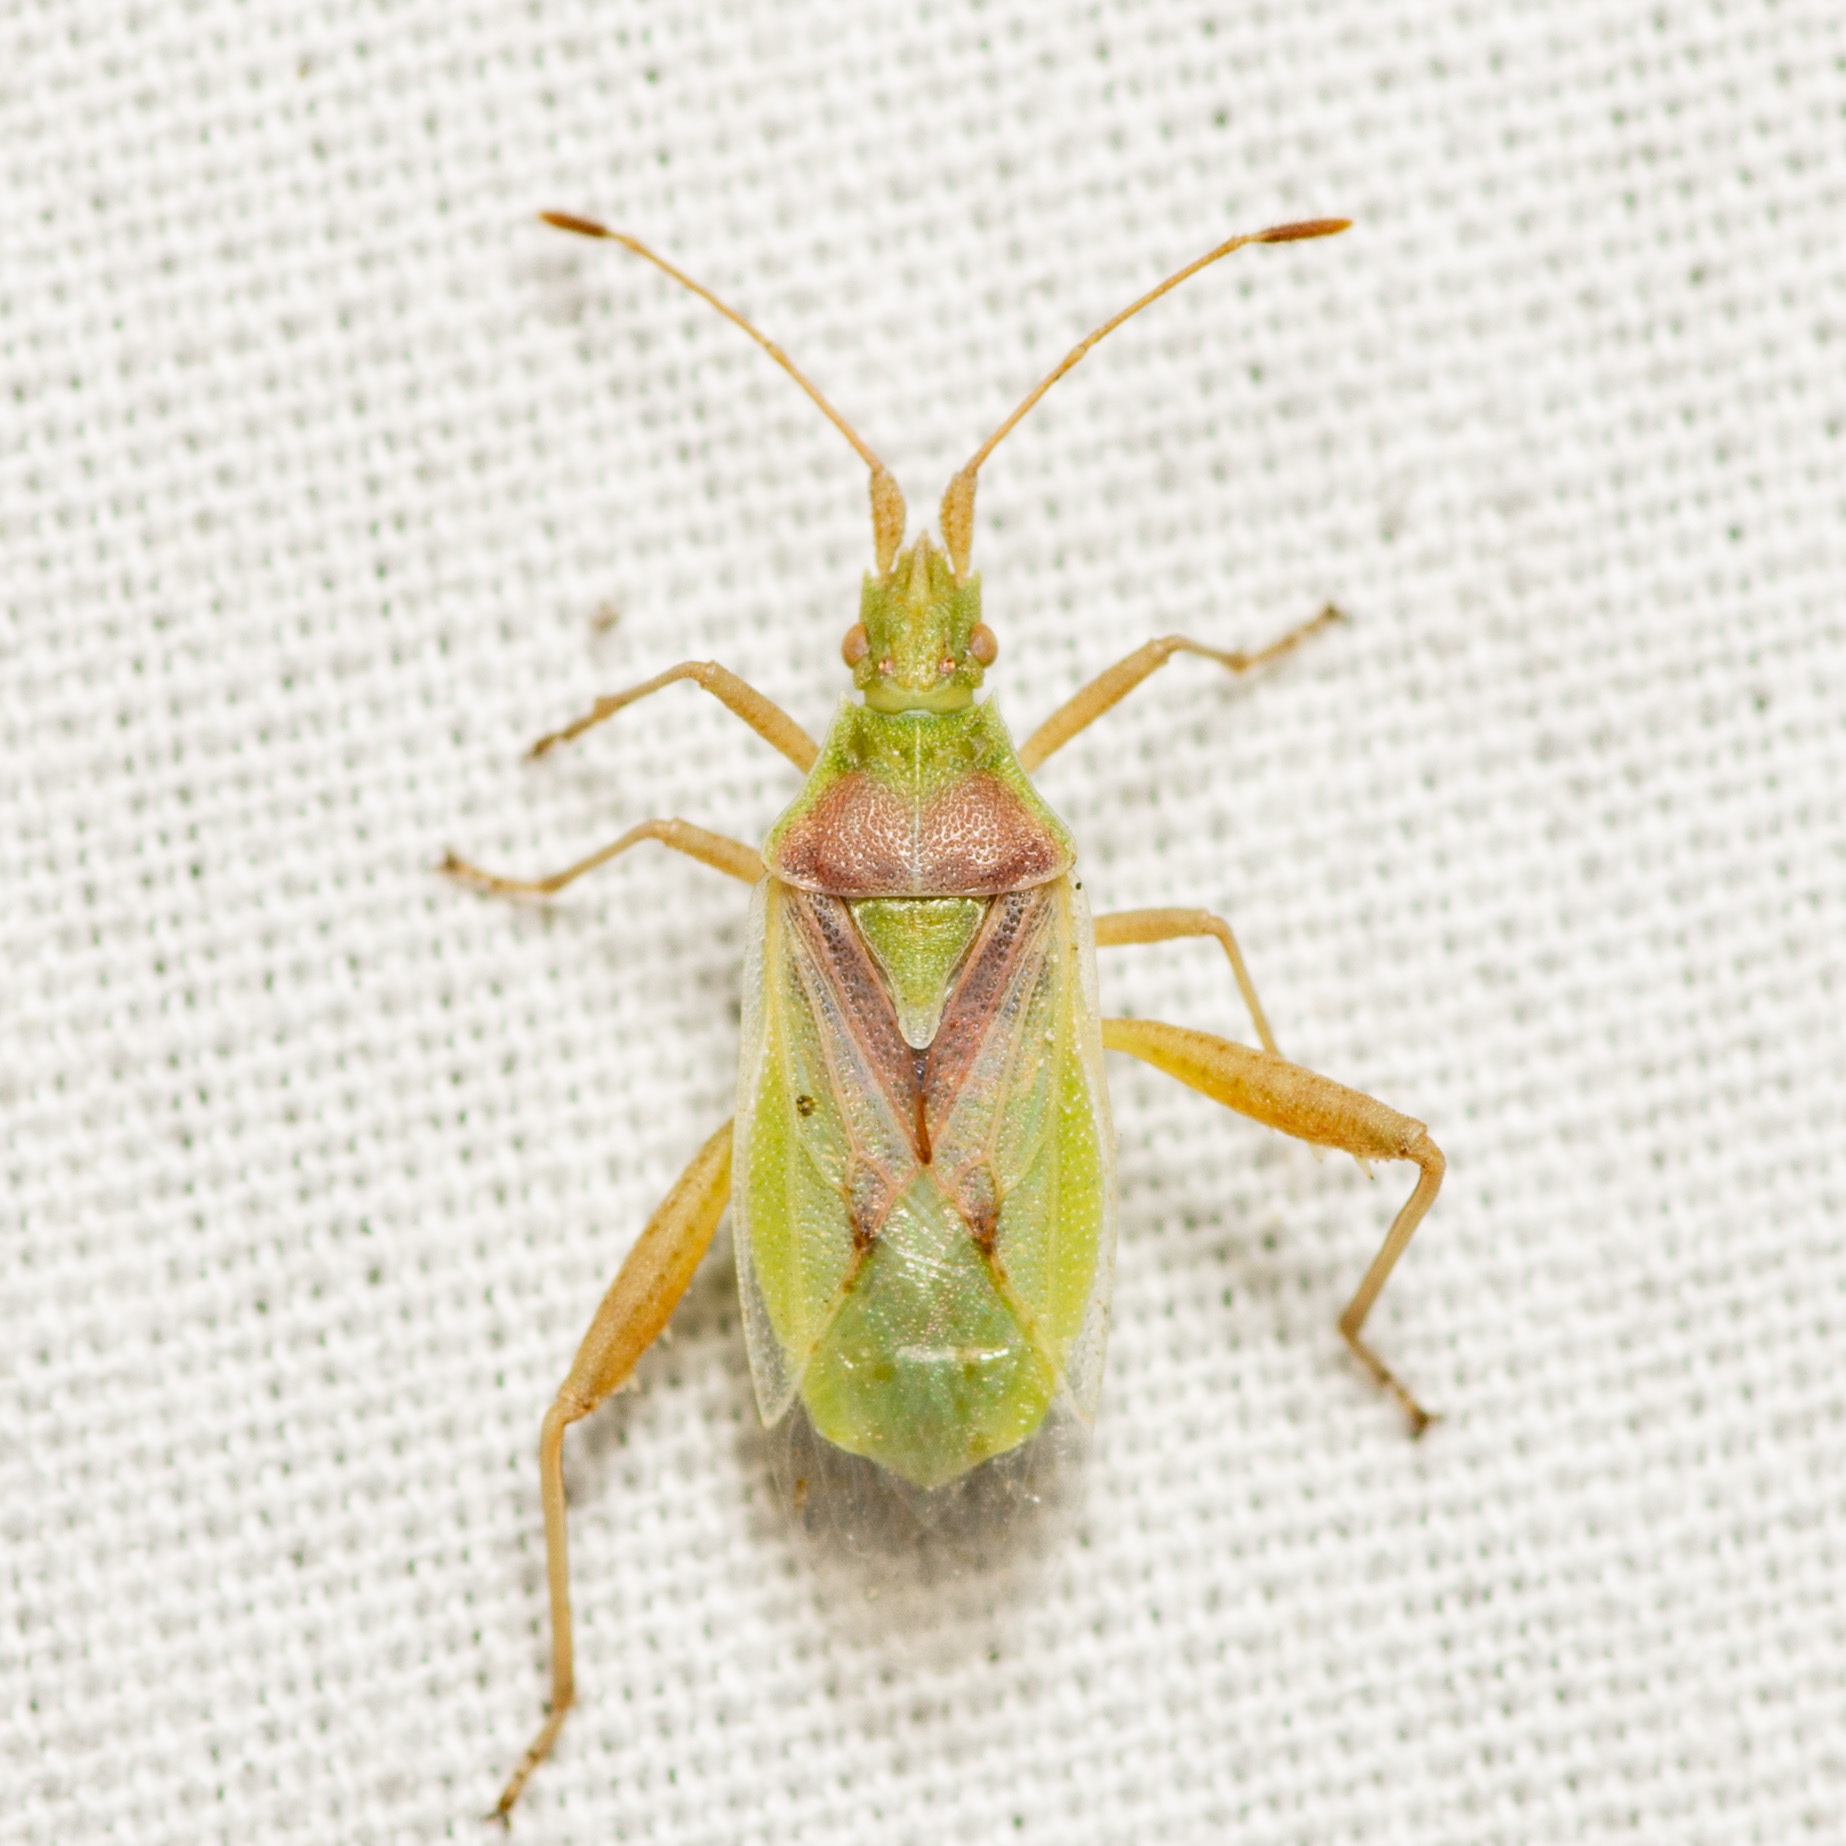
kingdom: Animalia
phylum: Arthropoda
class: Insecta
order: Hemiptera
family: Rhopalidae
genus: Harmostes
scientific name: Harmostes reflexulus
